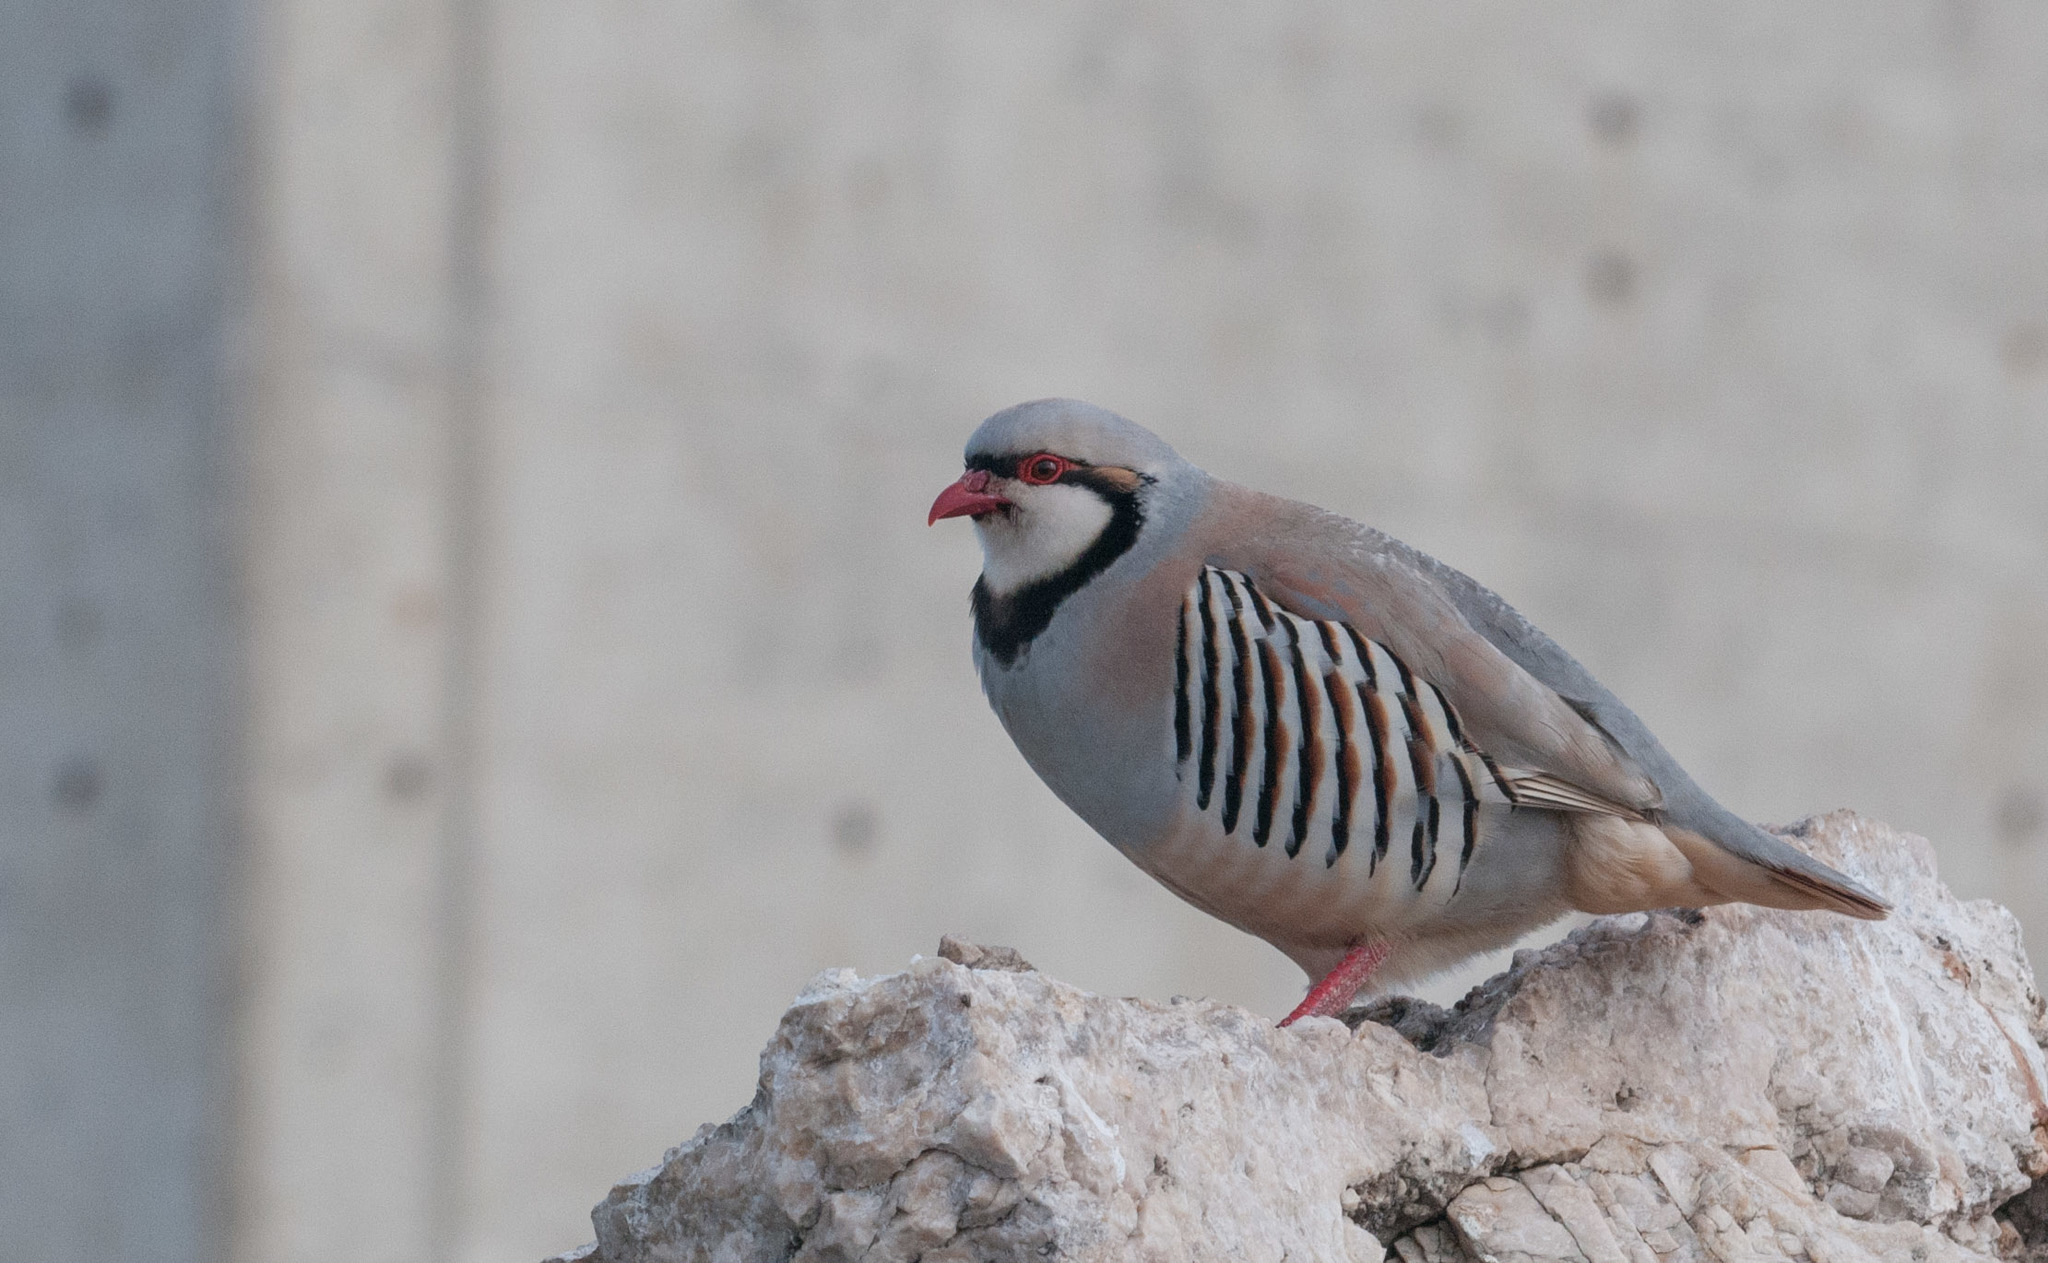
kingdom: Animalia
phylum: Chordata
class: Aves
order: Galliformes
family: Phasianidae
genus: Alectoris
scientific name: Alectoris chukar
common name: Chukar
